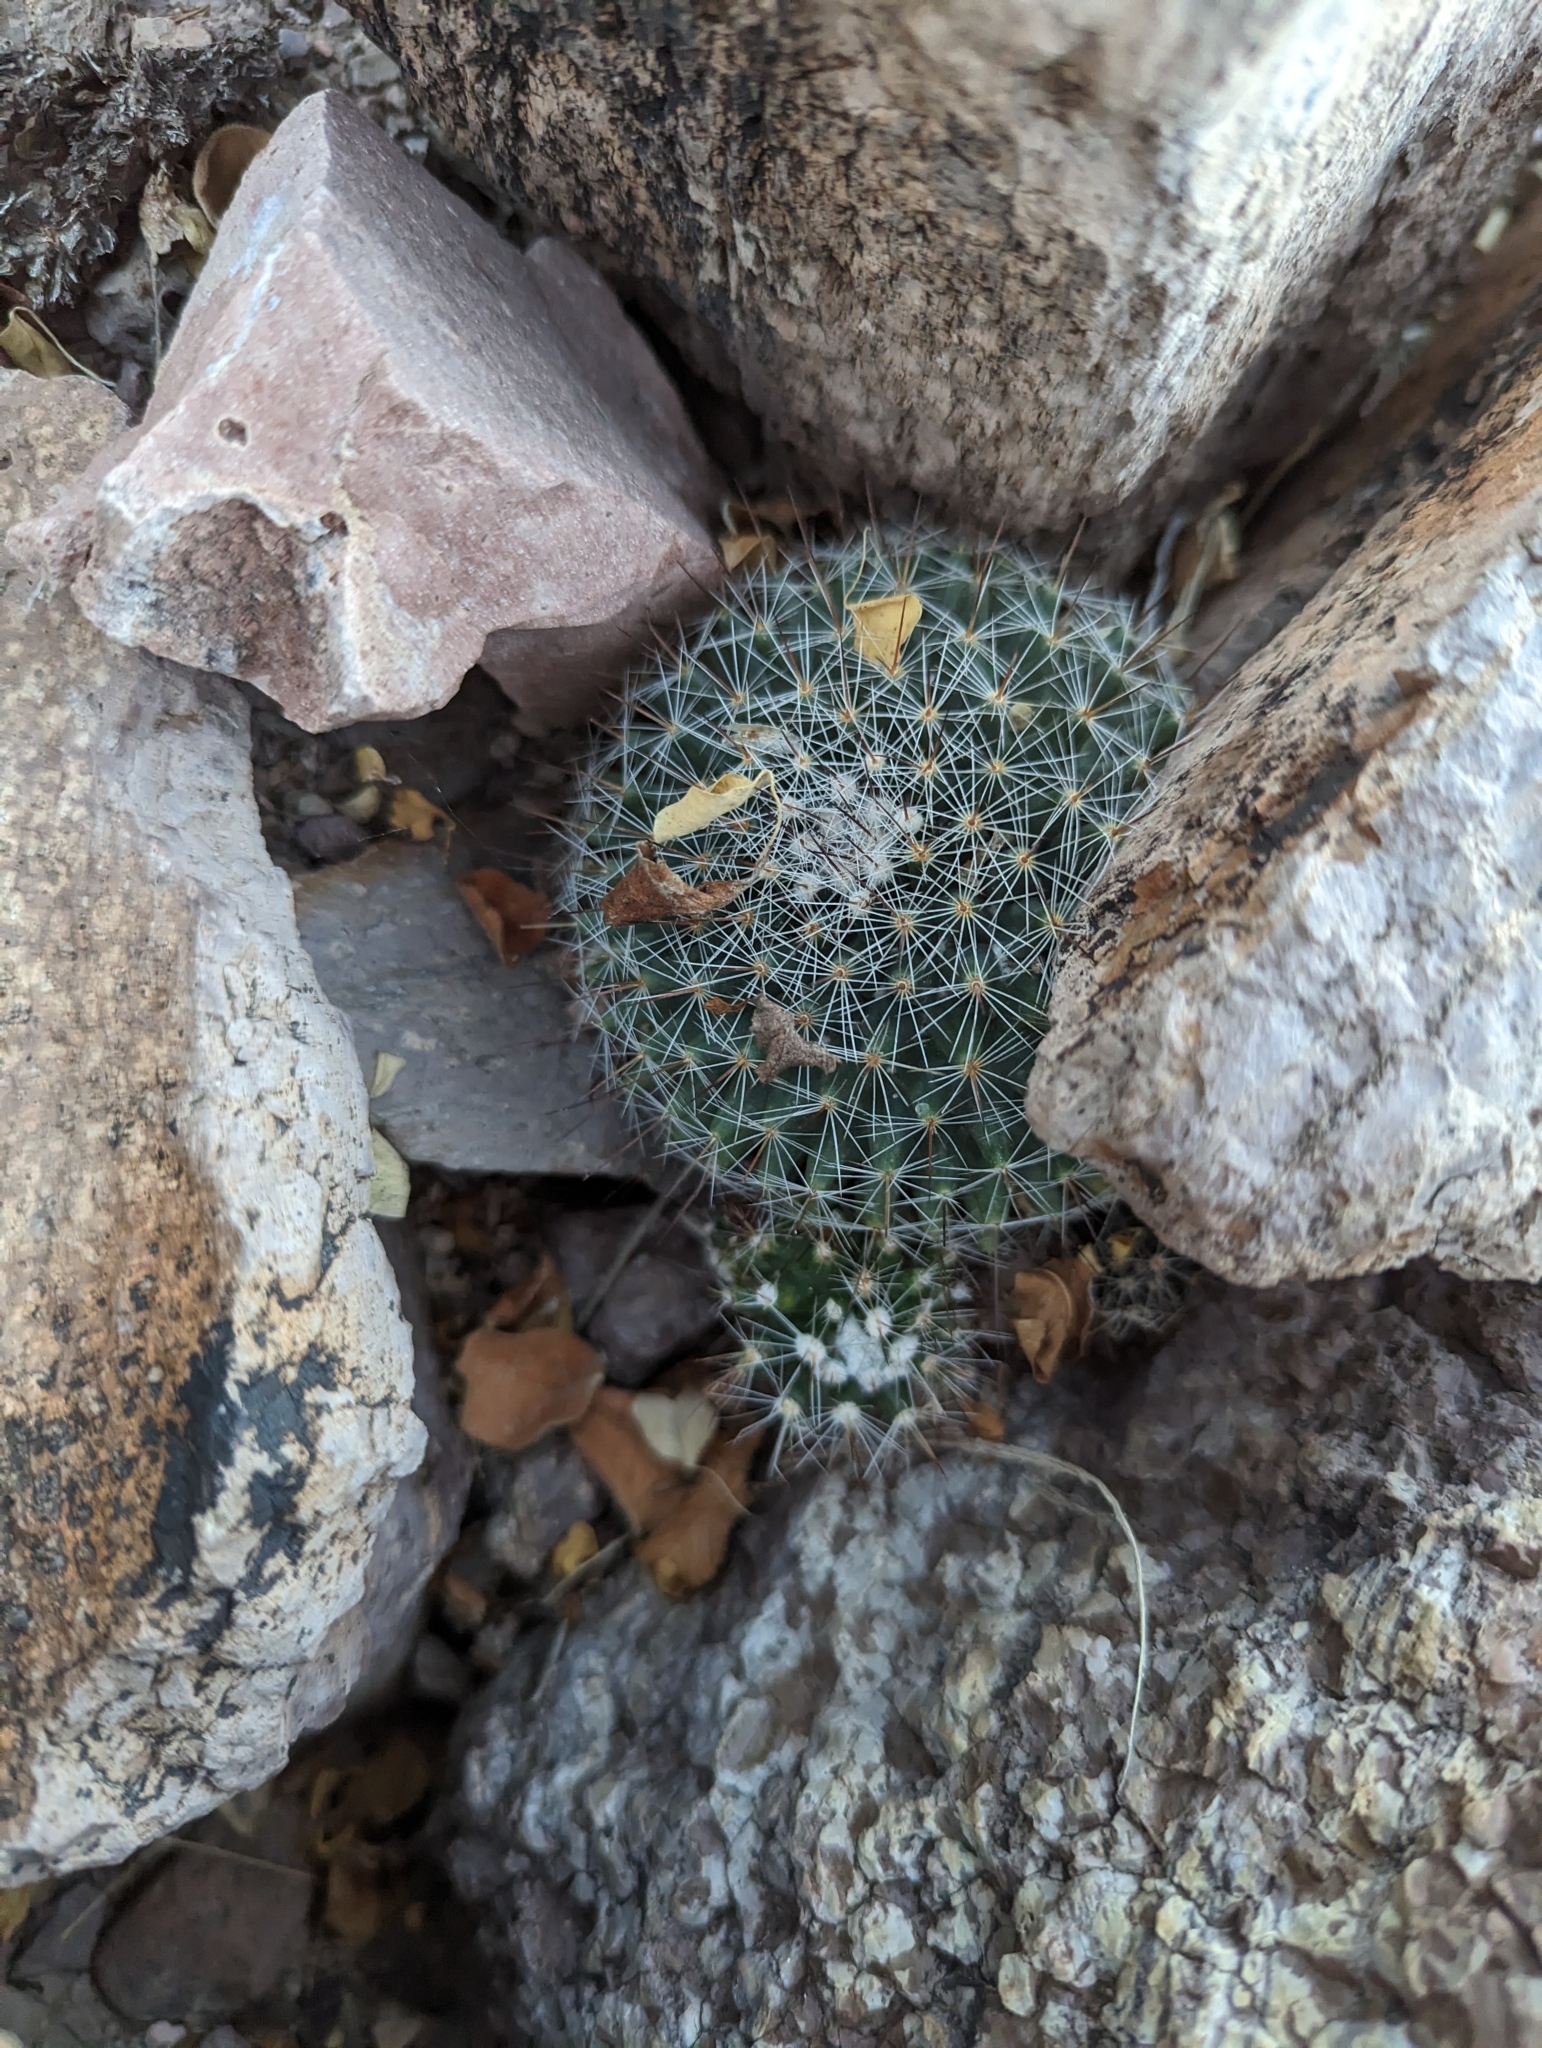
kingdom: Plantae
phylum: Tracheophyta
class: Magnoliopsida
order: Caryophyllales
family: Cactaceae
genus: Mammillaria
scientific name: Mammillaria petrophila
